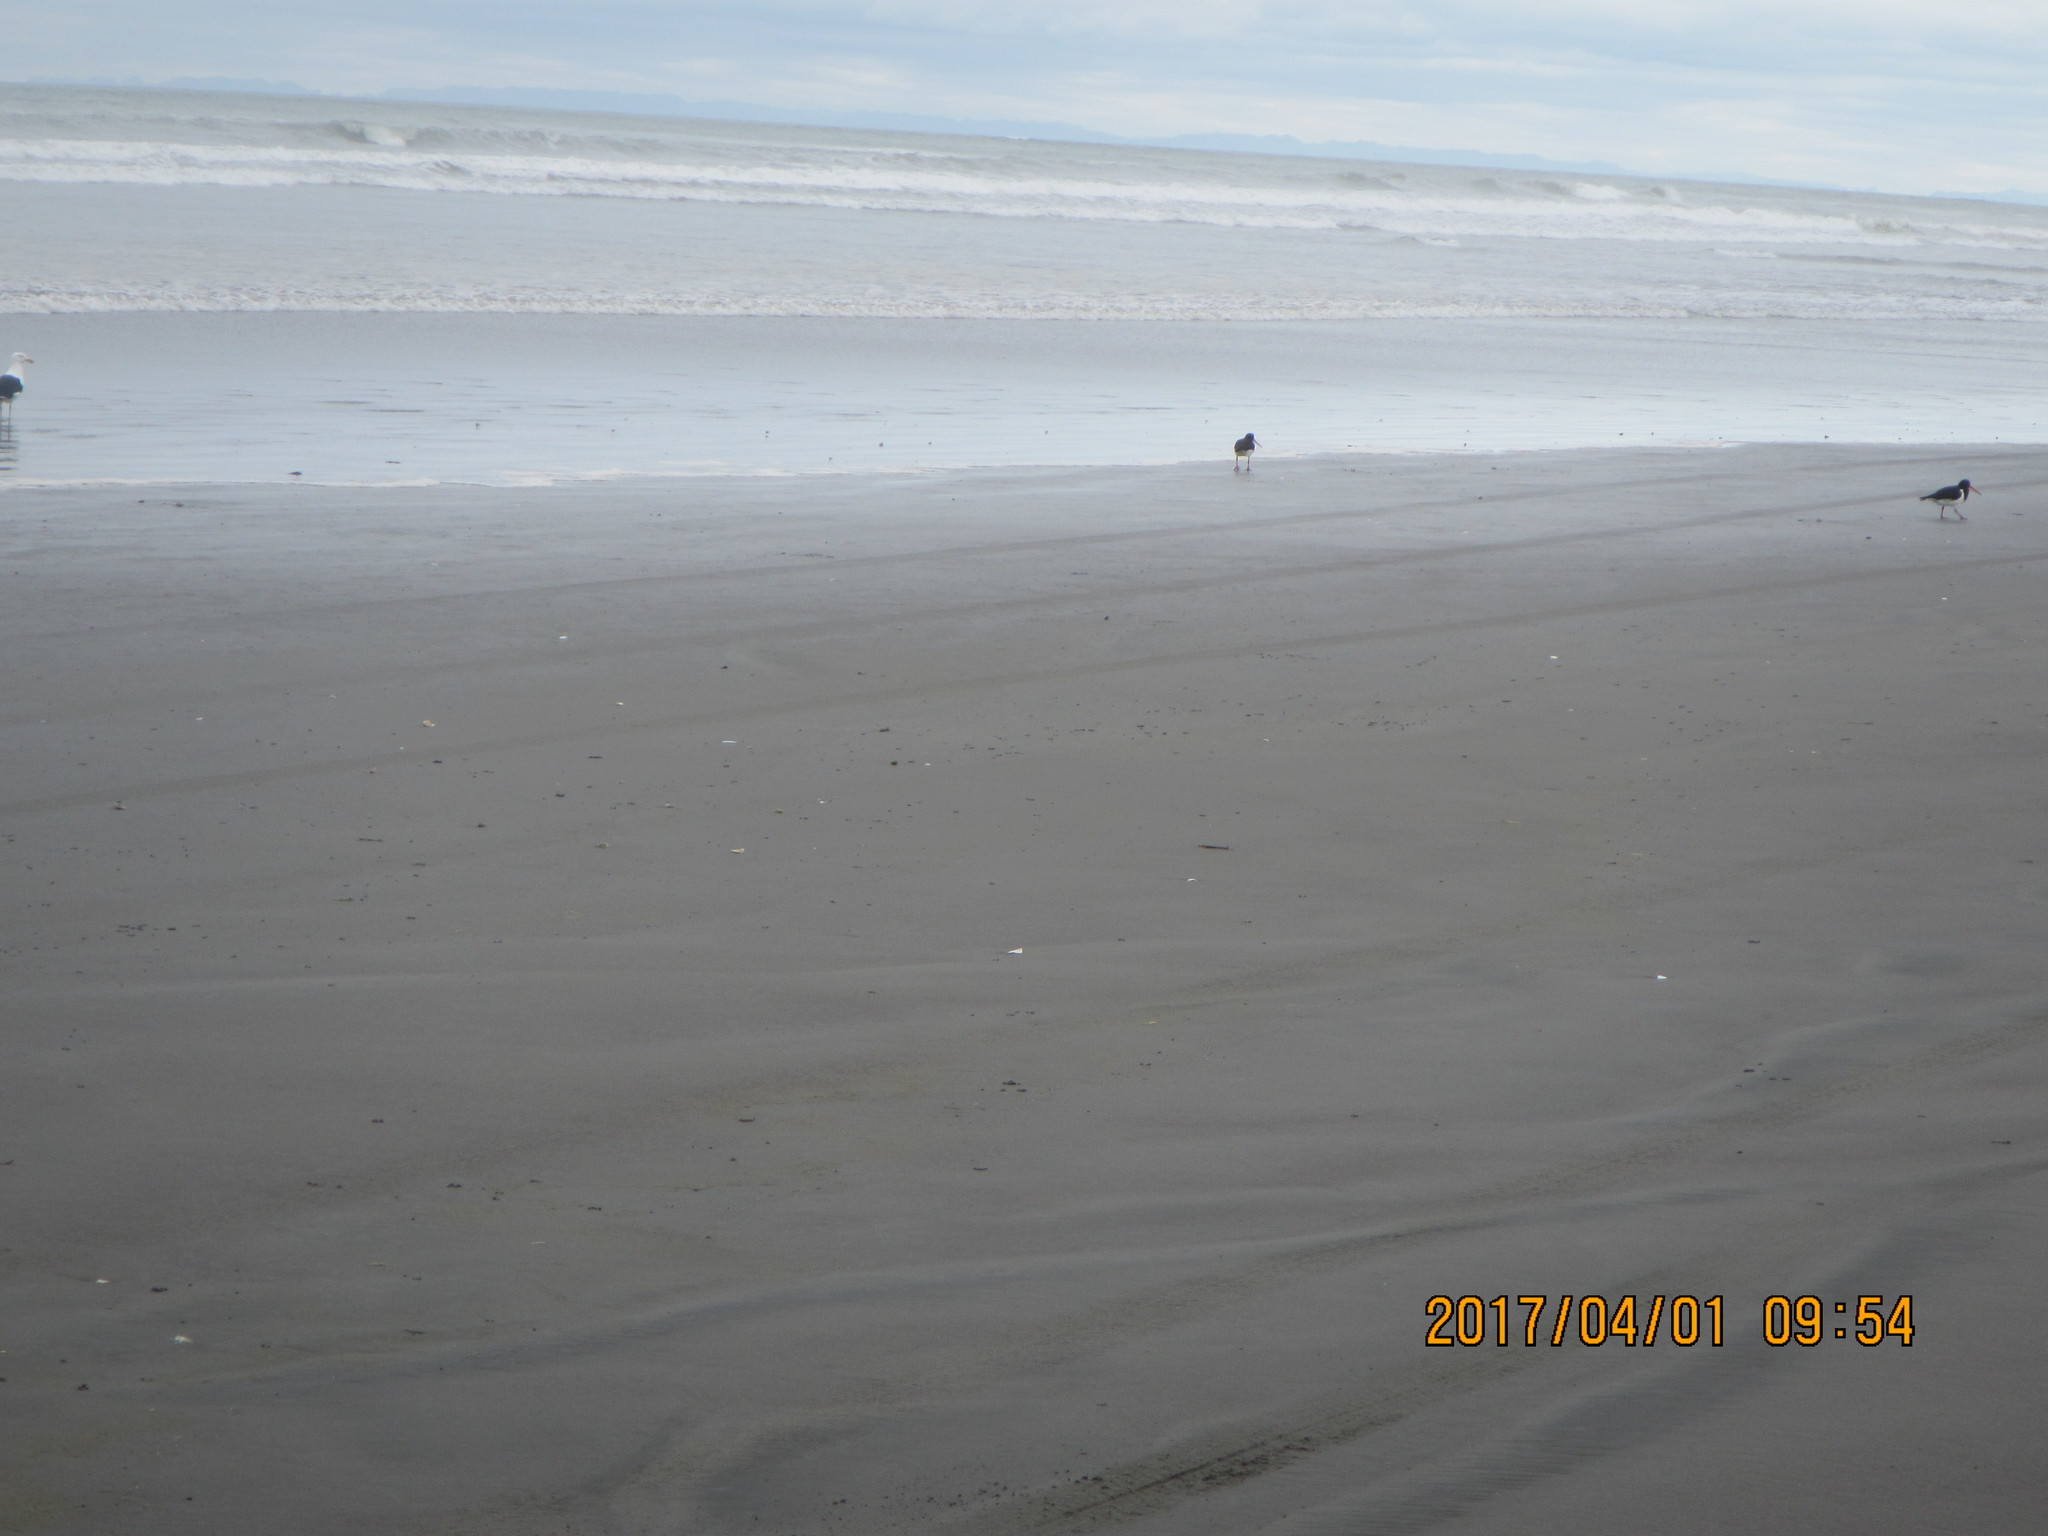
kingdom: Animalia
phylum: Chordata
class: Aves
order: Charadriiformes
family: Haematopodidae
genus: Haematopus
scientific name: Haematopus finschi
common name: South island oystercatcher
